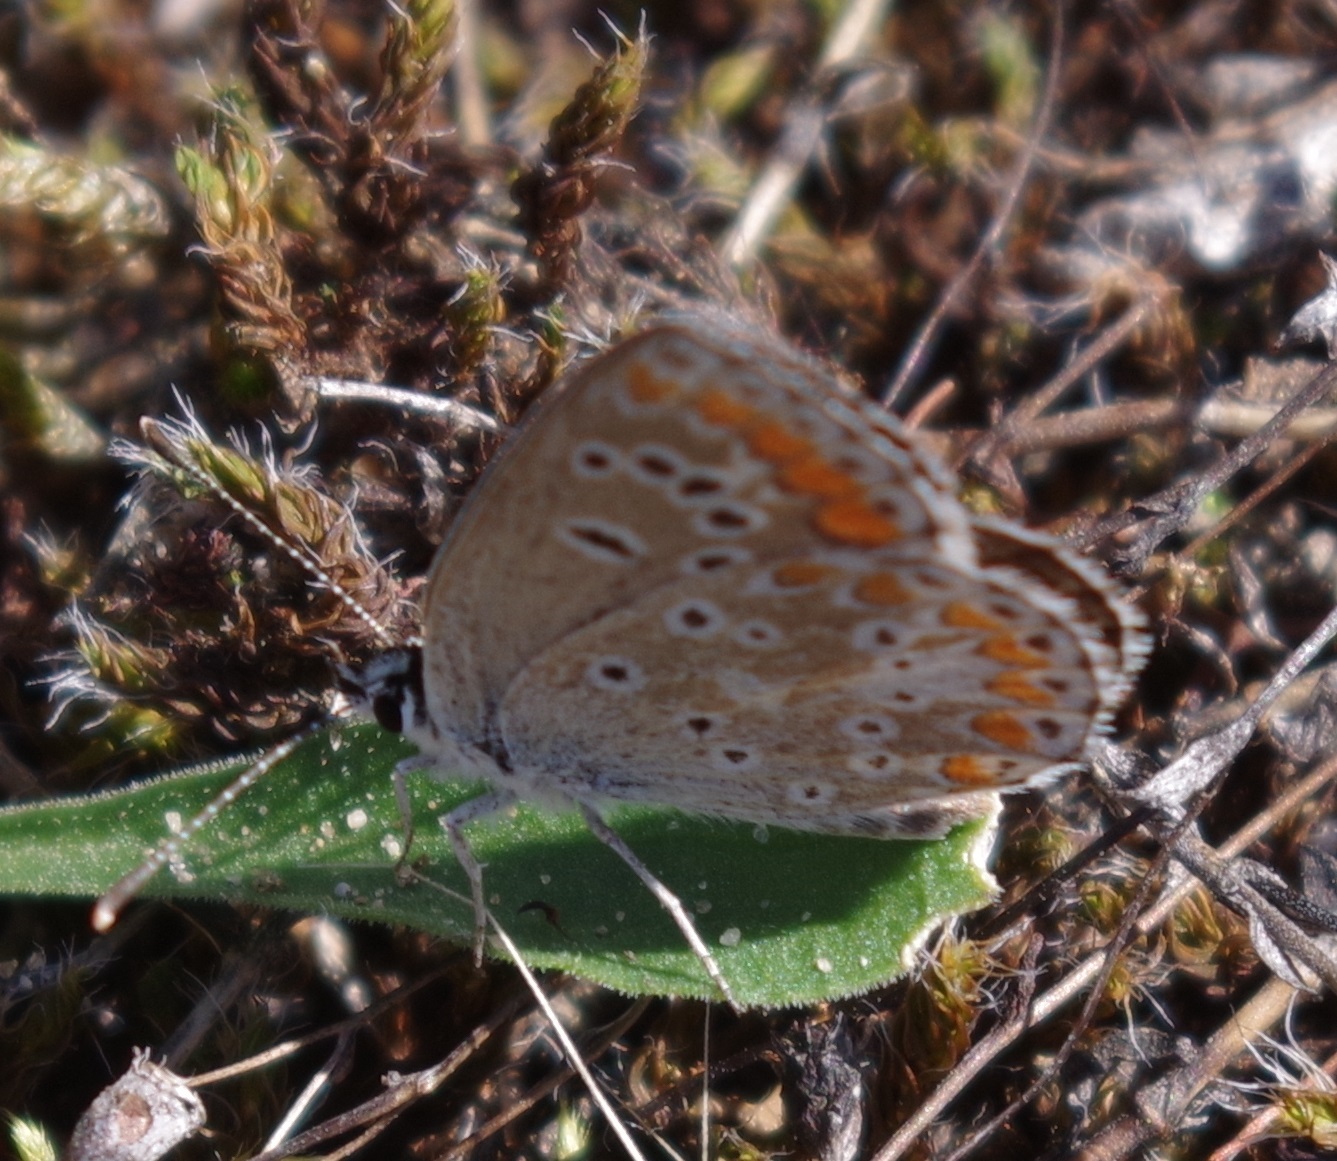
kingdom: Animalia
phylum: Arthropoda
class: Insecta
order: Lepidoptera
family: Lycaenidae
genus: Aricia
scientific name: Aricia agestis
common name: Brown argus
